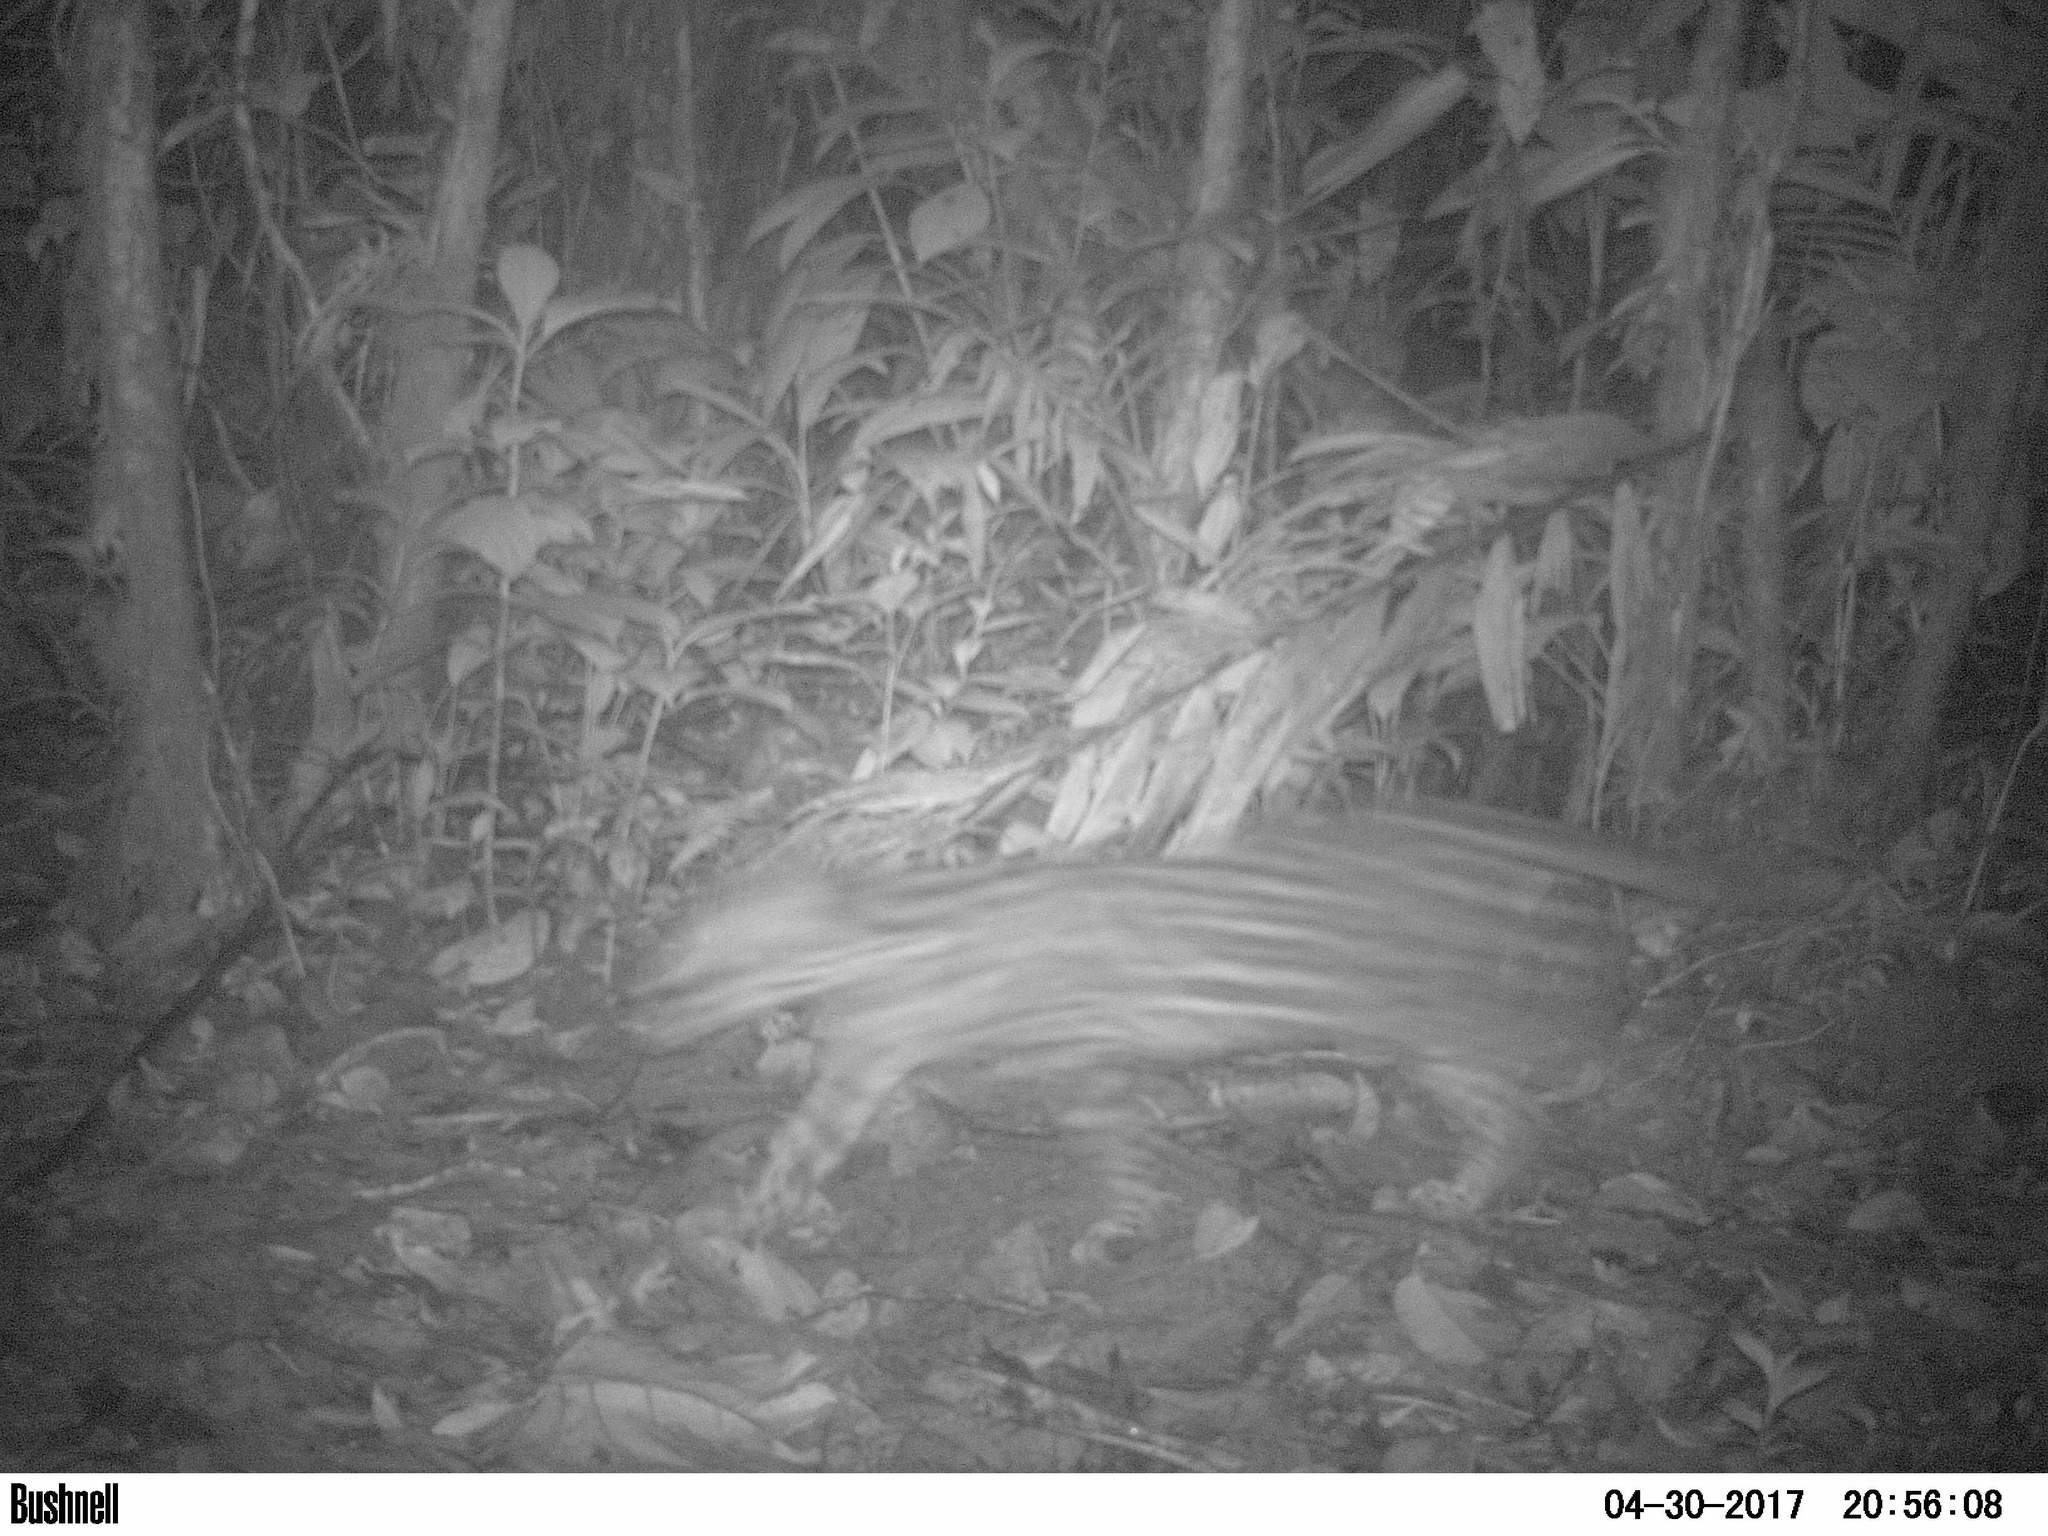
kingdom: Animalia
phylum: Chordata
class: Mammalia
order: Carnivora
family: Felidae
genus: Leopardus
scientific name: Leopardus pardalis
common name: Ocelot
